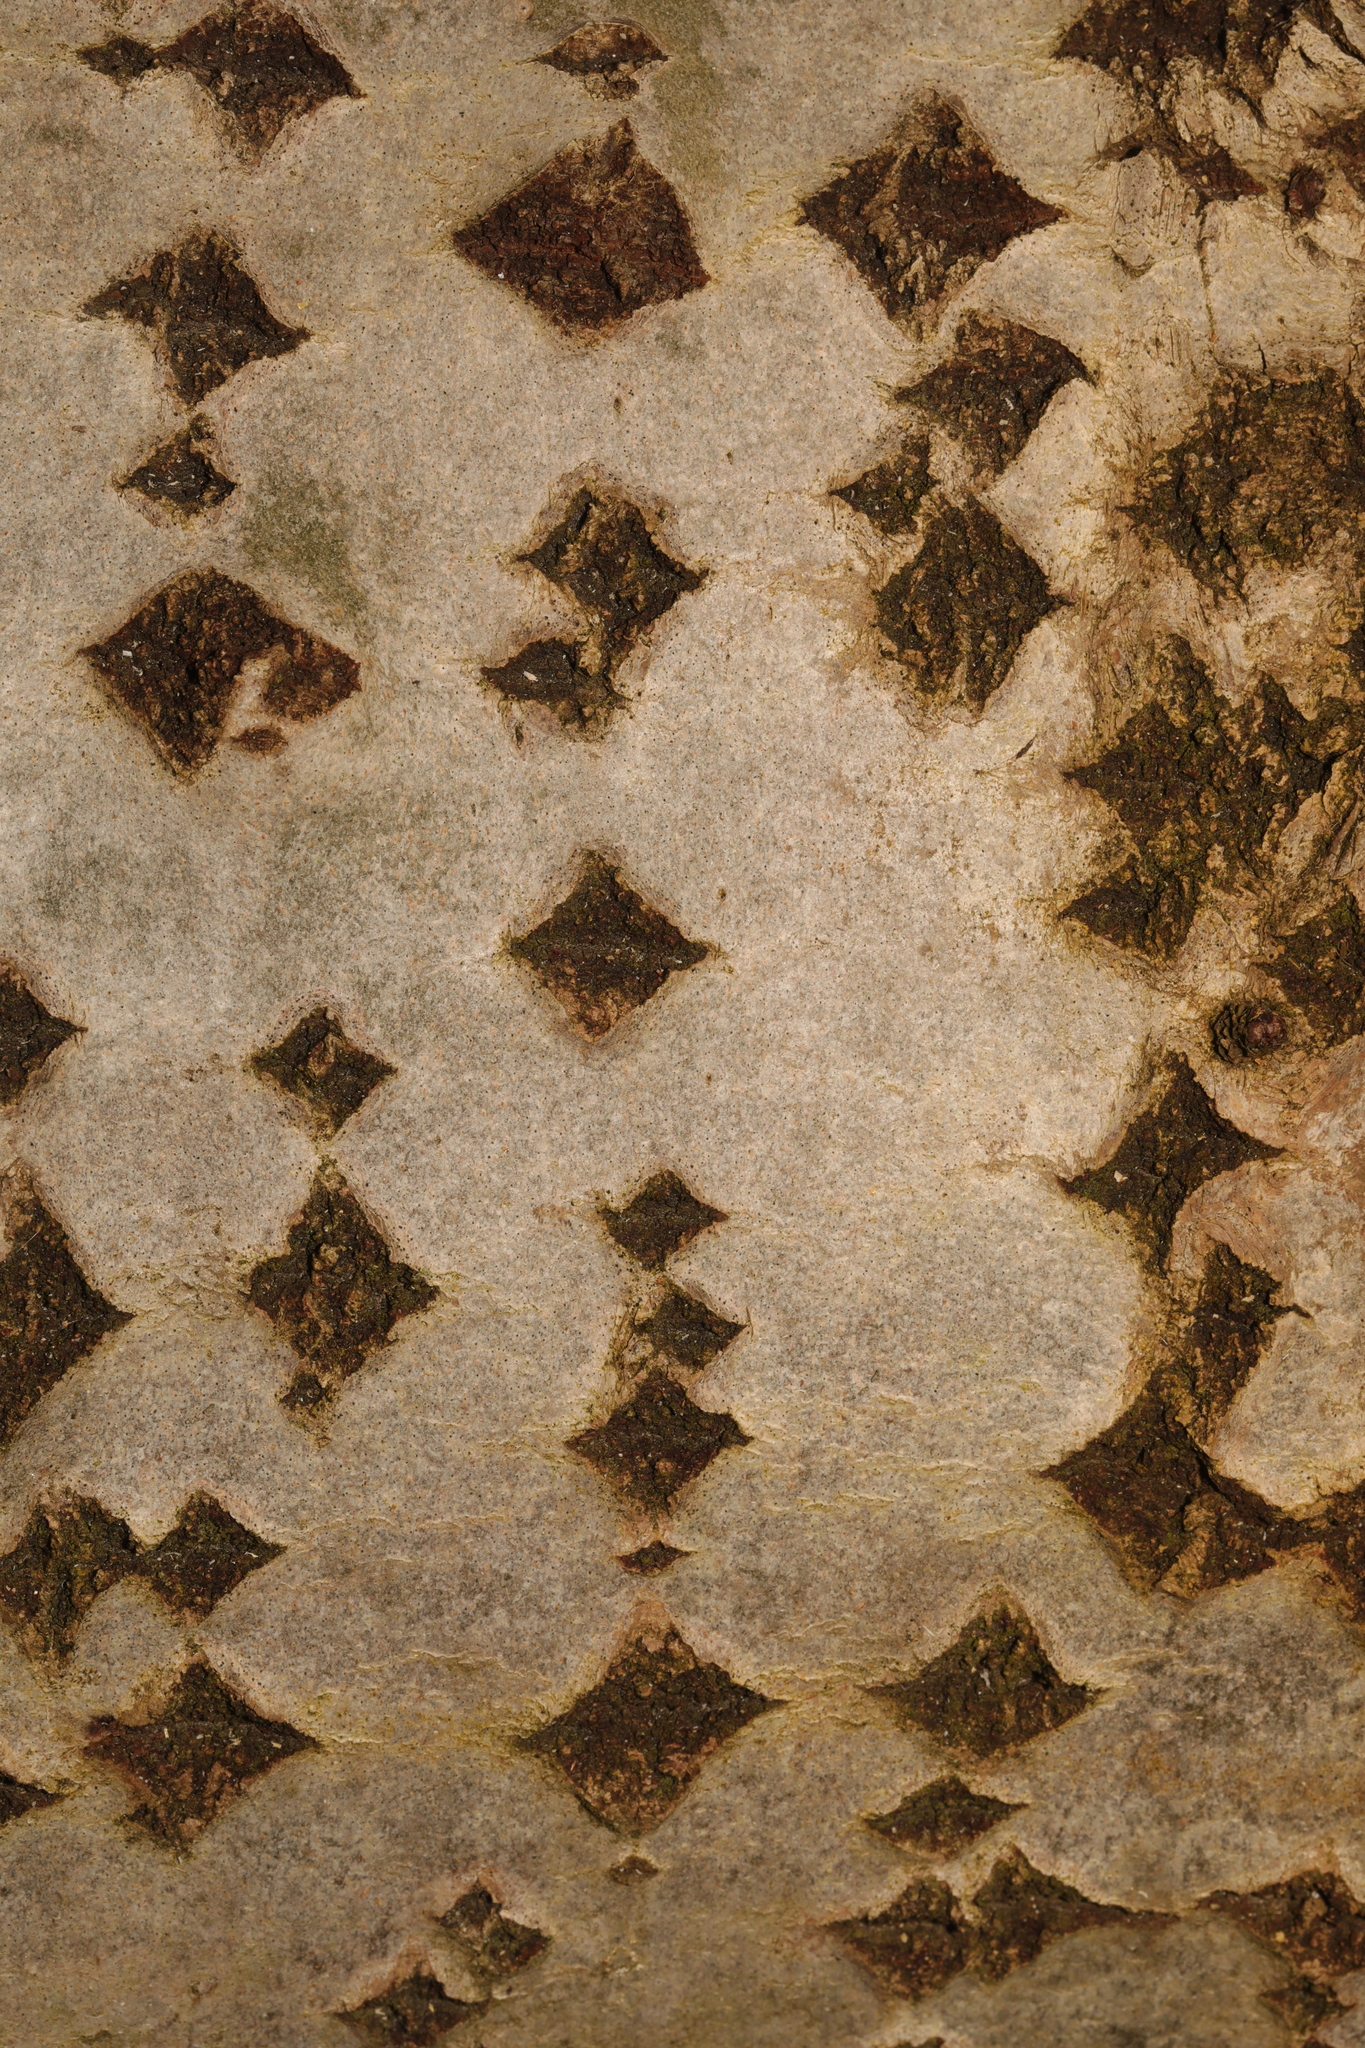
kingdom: Plantae
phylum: Tracheophyta
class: Magnoliopsida
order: Fagales
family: Betulaceae
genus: Betula
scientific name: Betula pendula
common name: Silver birch
